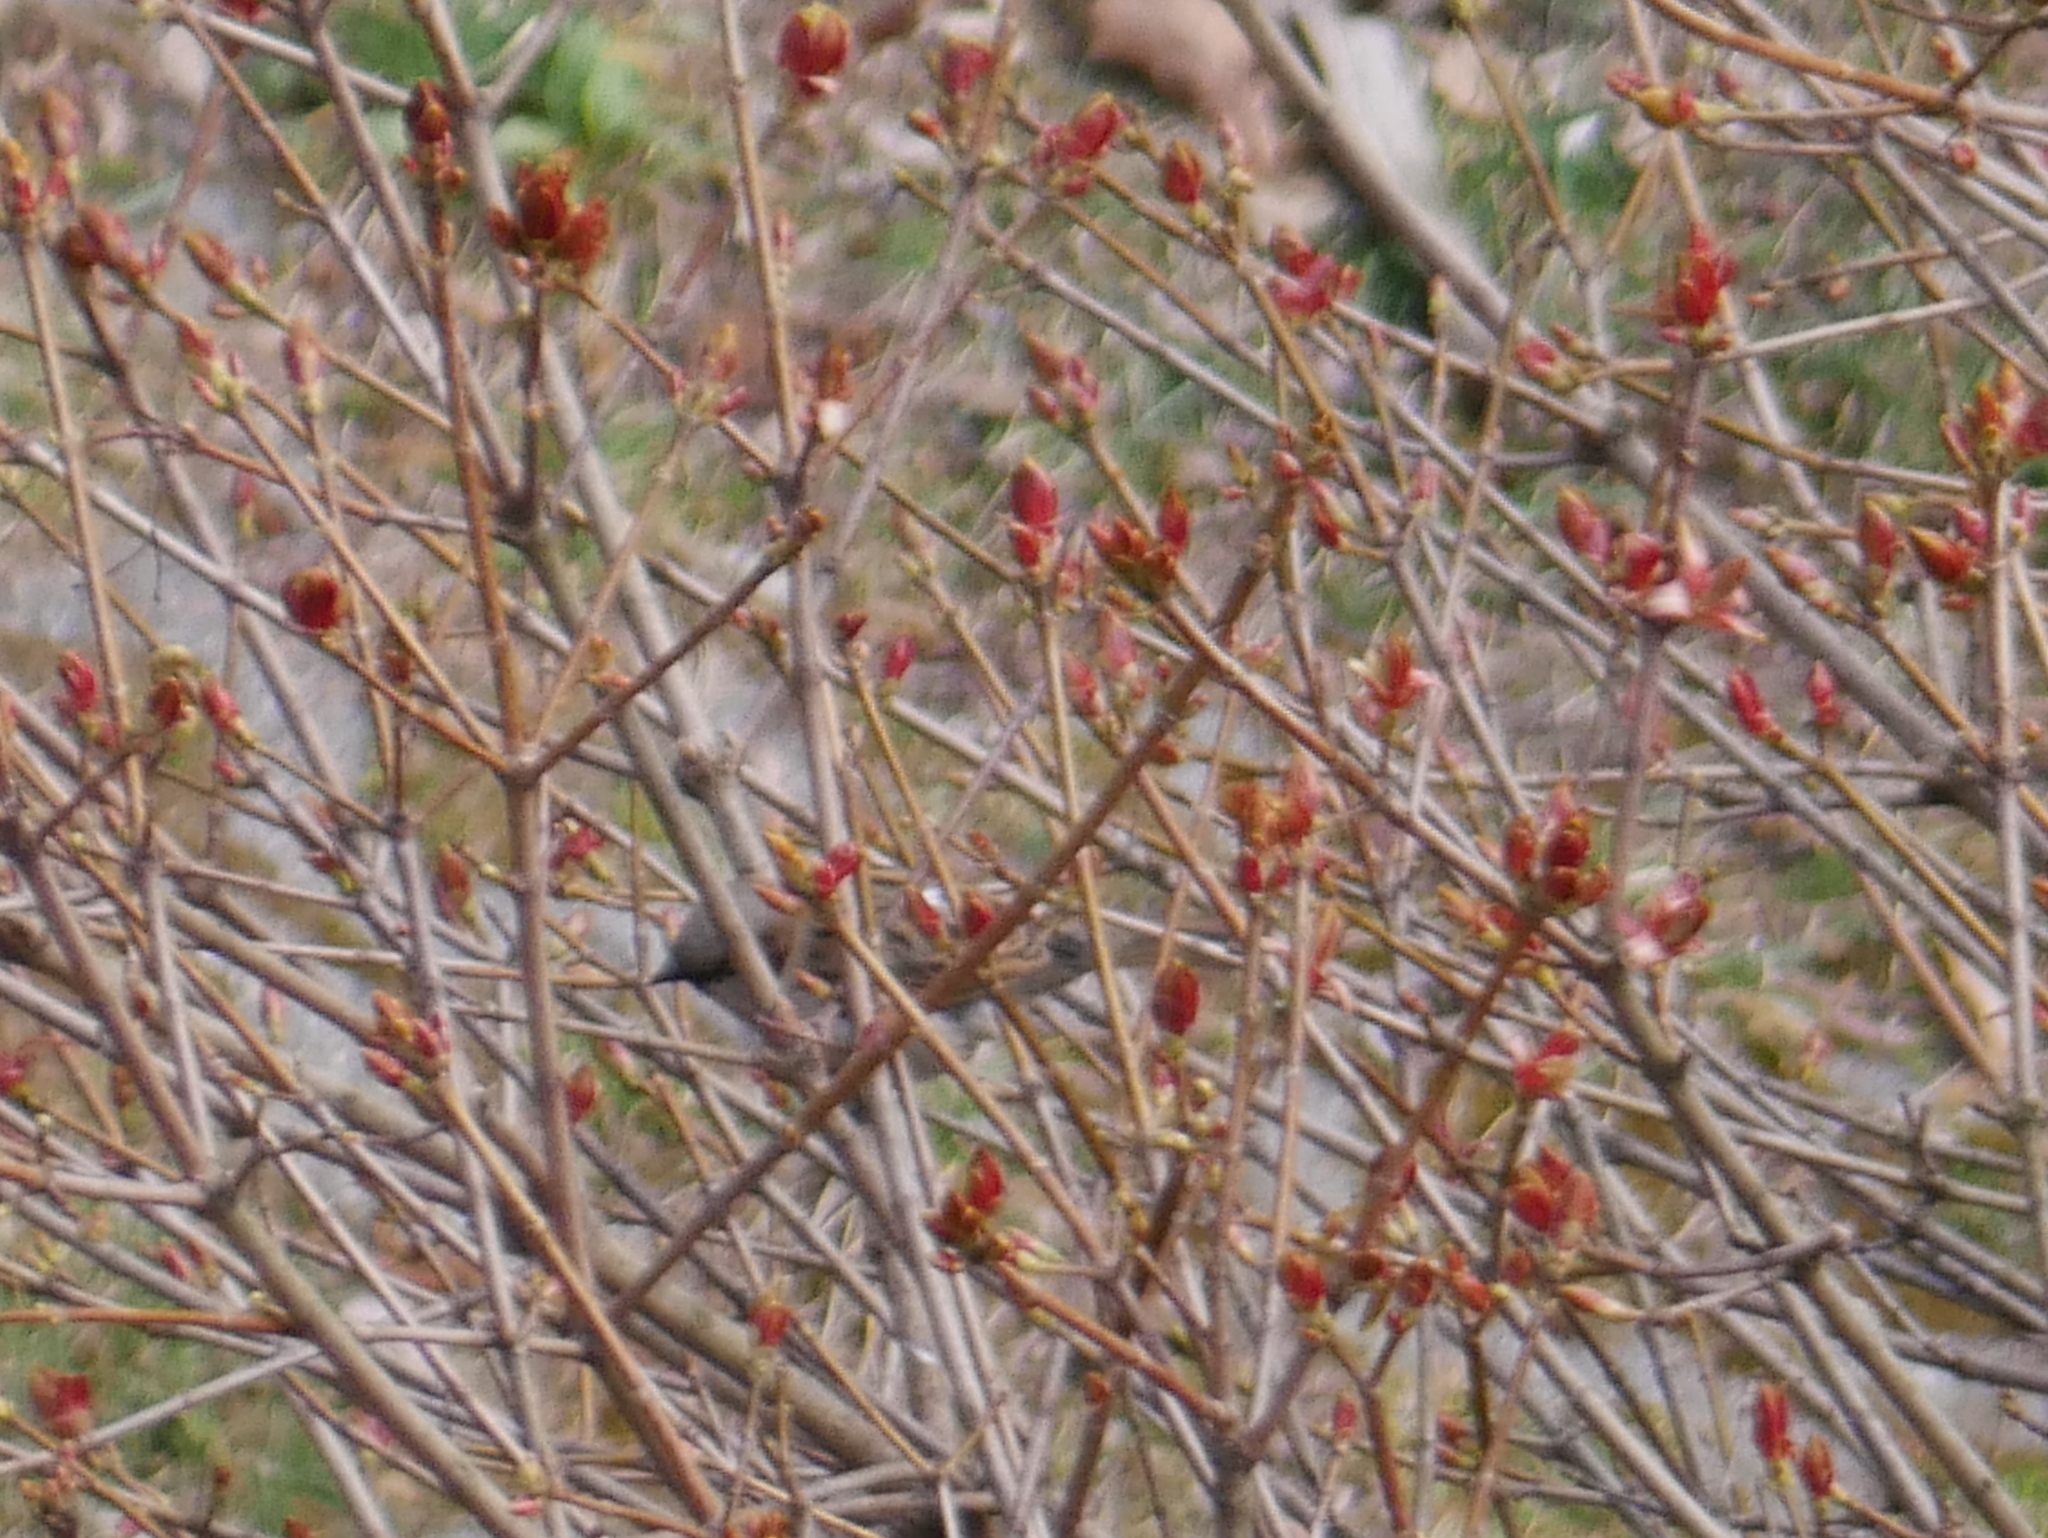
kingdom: Animalia
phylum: Chordata
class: Aves
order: Passeriformes
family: Passeridae
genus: Passer
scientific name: Passer domesticus
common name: House sparrow
